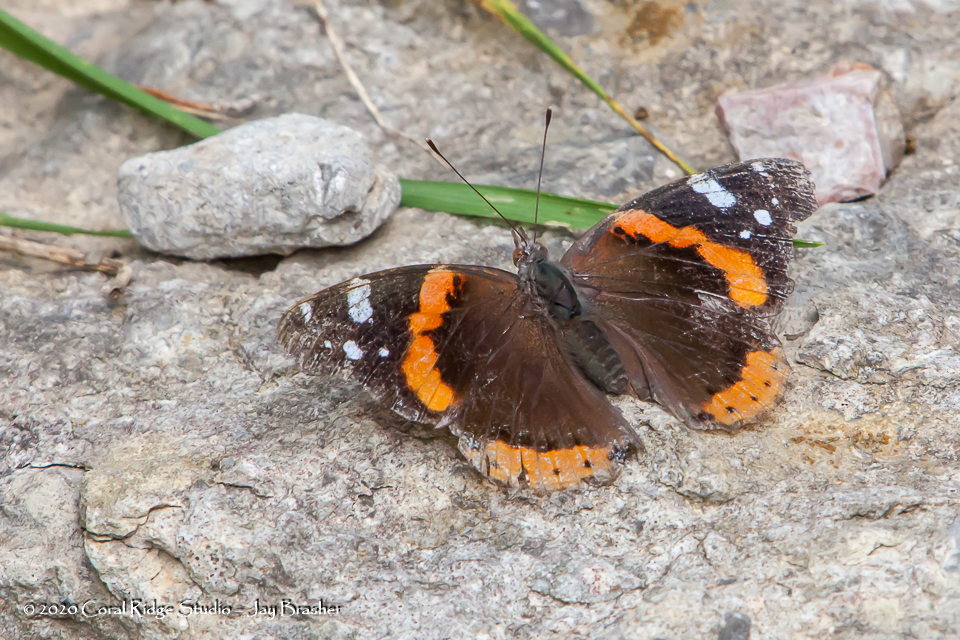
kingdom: Animalia
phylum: Arthropoda
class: Insecta
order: Lepidoptera
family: Nymphalidae
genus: Vanessa
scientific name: Vanessa atalanta
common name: Red admiral
